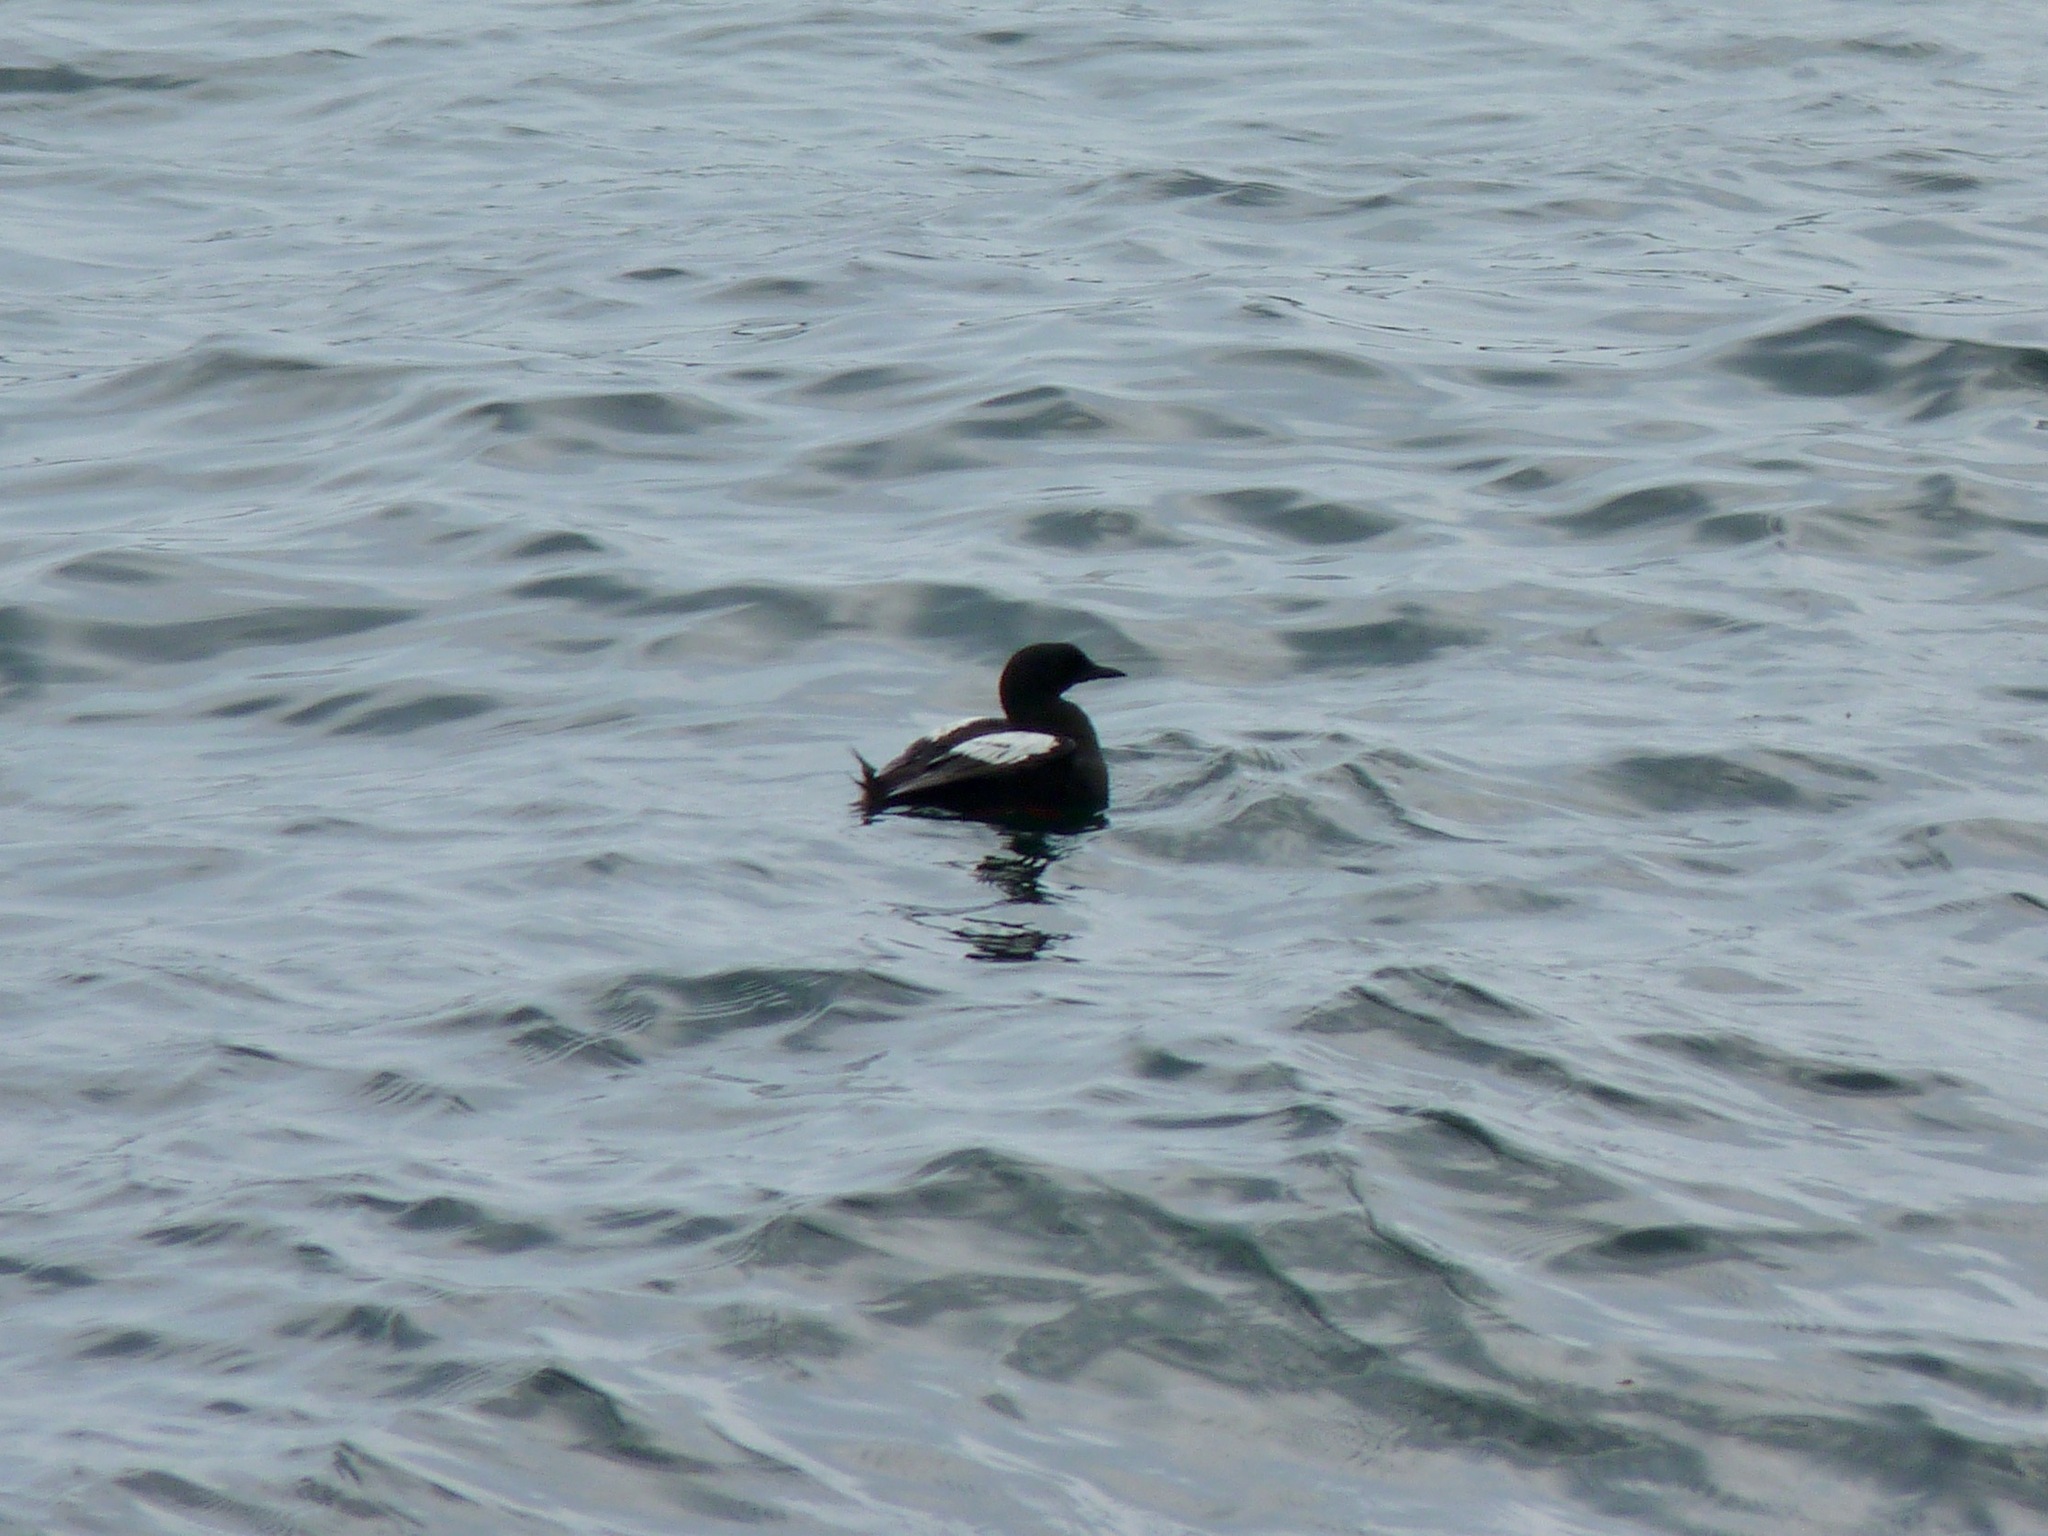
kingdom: Animalia
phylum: Chordata
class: Aves
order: Charadriiformes
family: Alcidae
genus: Cepphus
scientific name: Cepphus grylle
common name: Black guillemot
